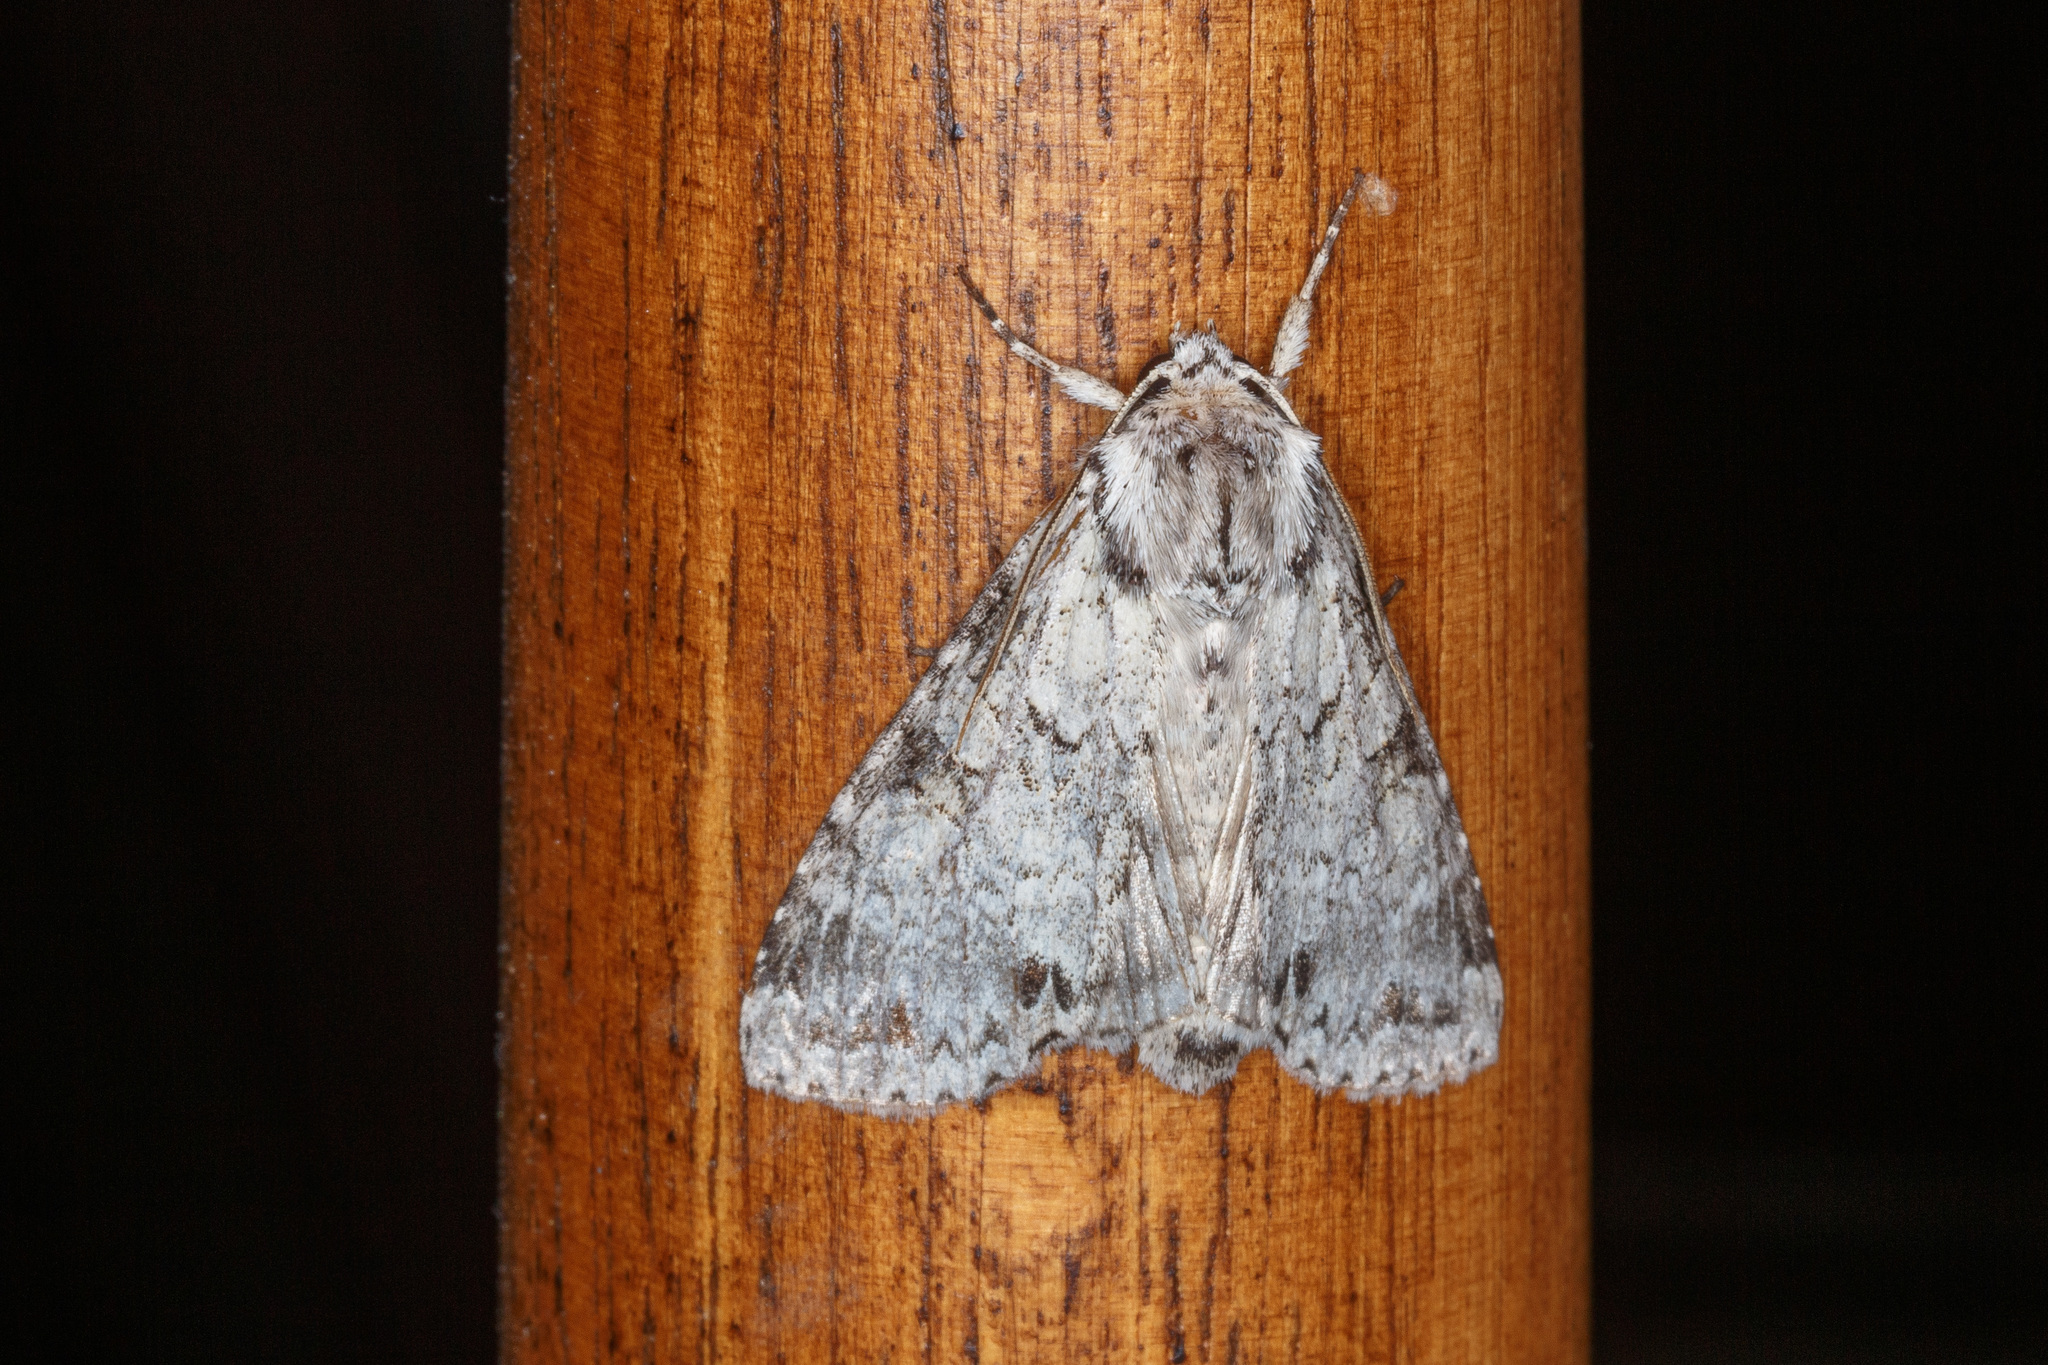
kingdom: Animalia
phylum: Arthropoda
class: Insecta
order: Lepidoptera
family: Noctuidae
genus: Polia
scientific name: Polia nimbosa
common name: Stormy arches
